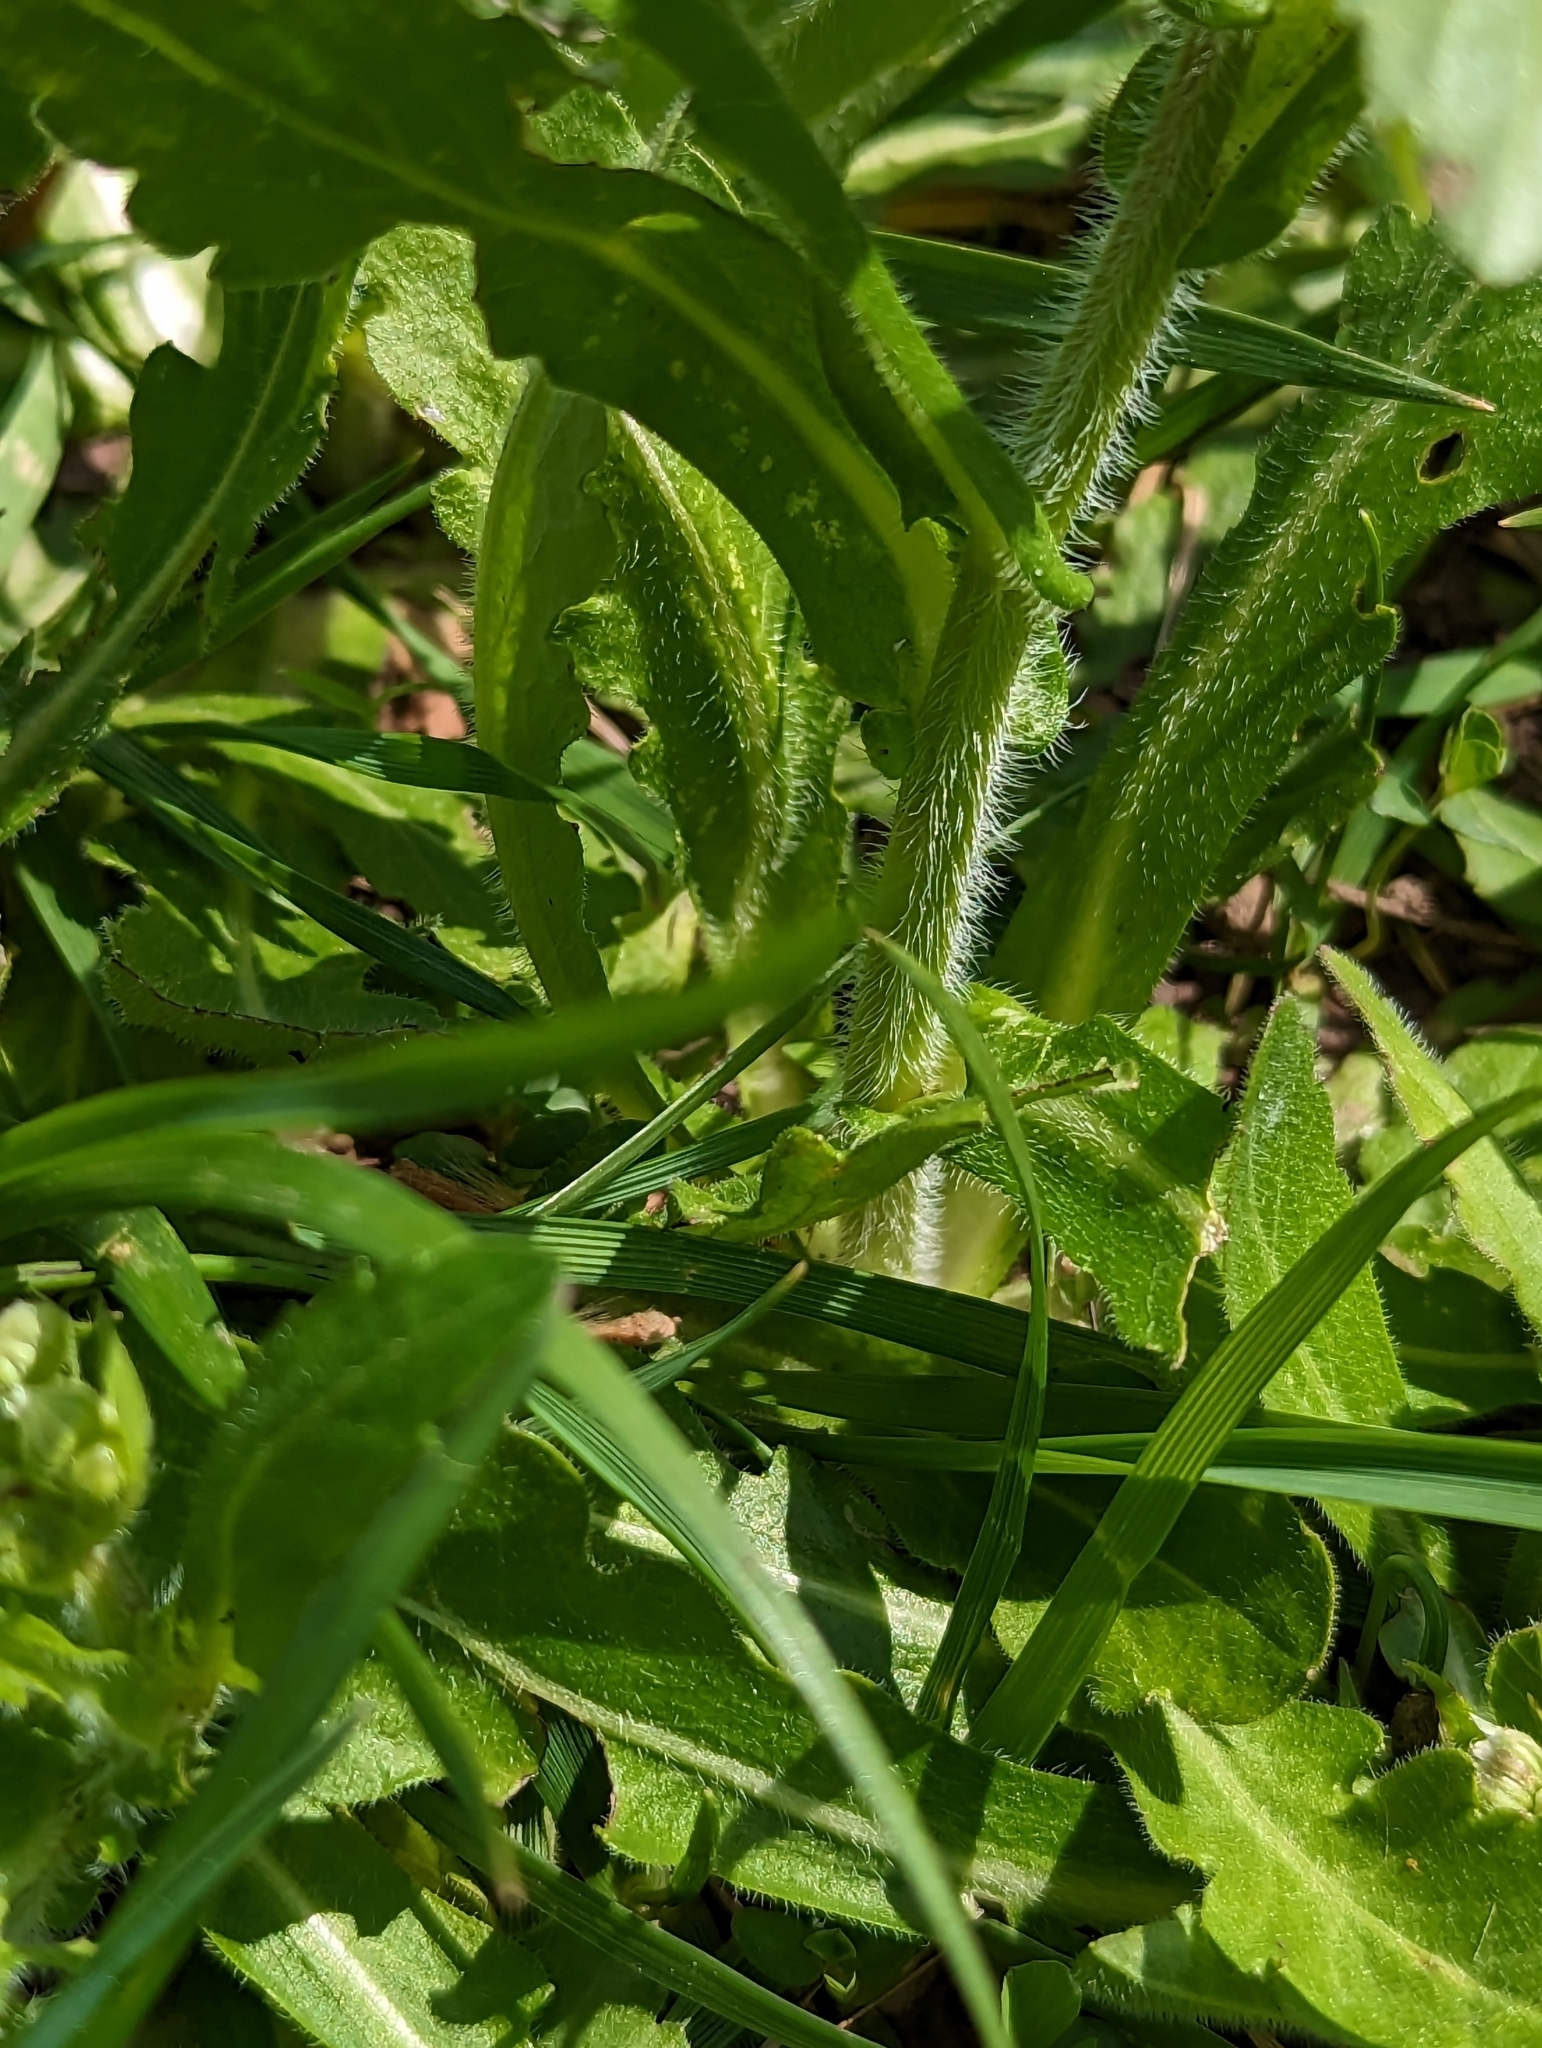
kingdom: Plantae
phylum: Tracheophyta
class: Magnoliopsida
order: Asterales
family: Asteraceae
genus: Erigeron
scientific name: Erigeron philadelphicus
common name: Robin's-plantain
